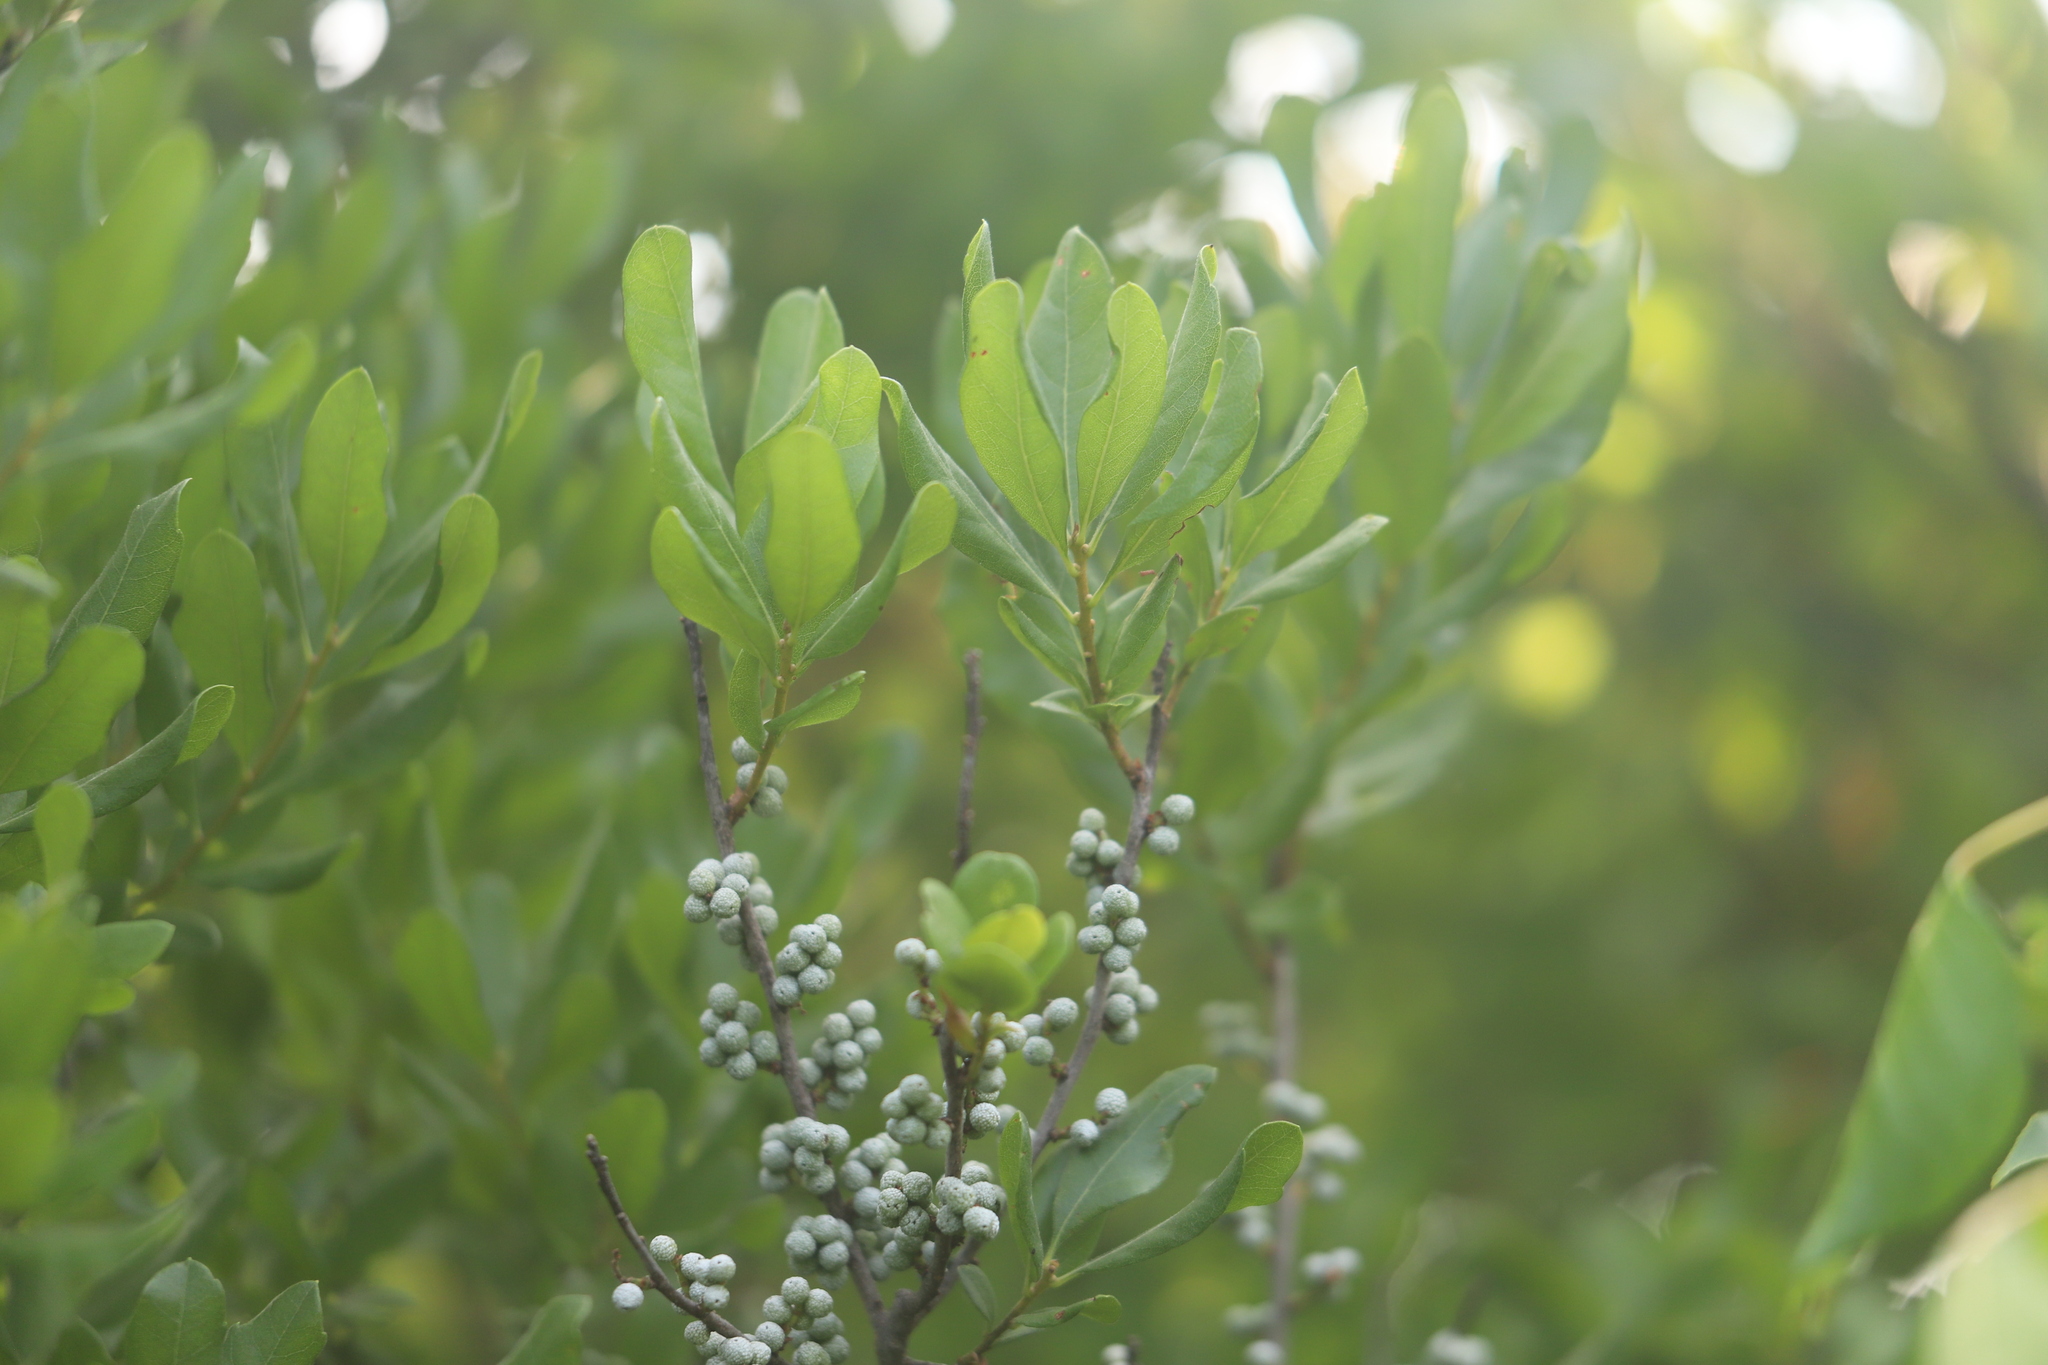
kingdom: Plantae
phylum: Tracheophyta
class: Magnoliopsida
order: Fagales
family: Myricaceae
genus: Morella
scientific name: Morella pensylvanica
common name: Northern bayberry
